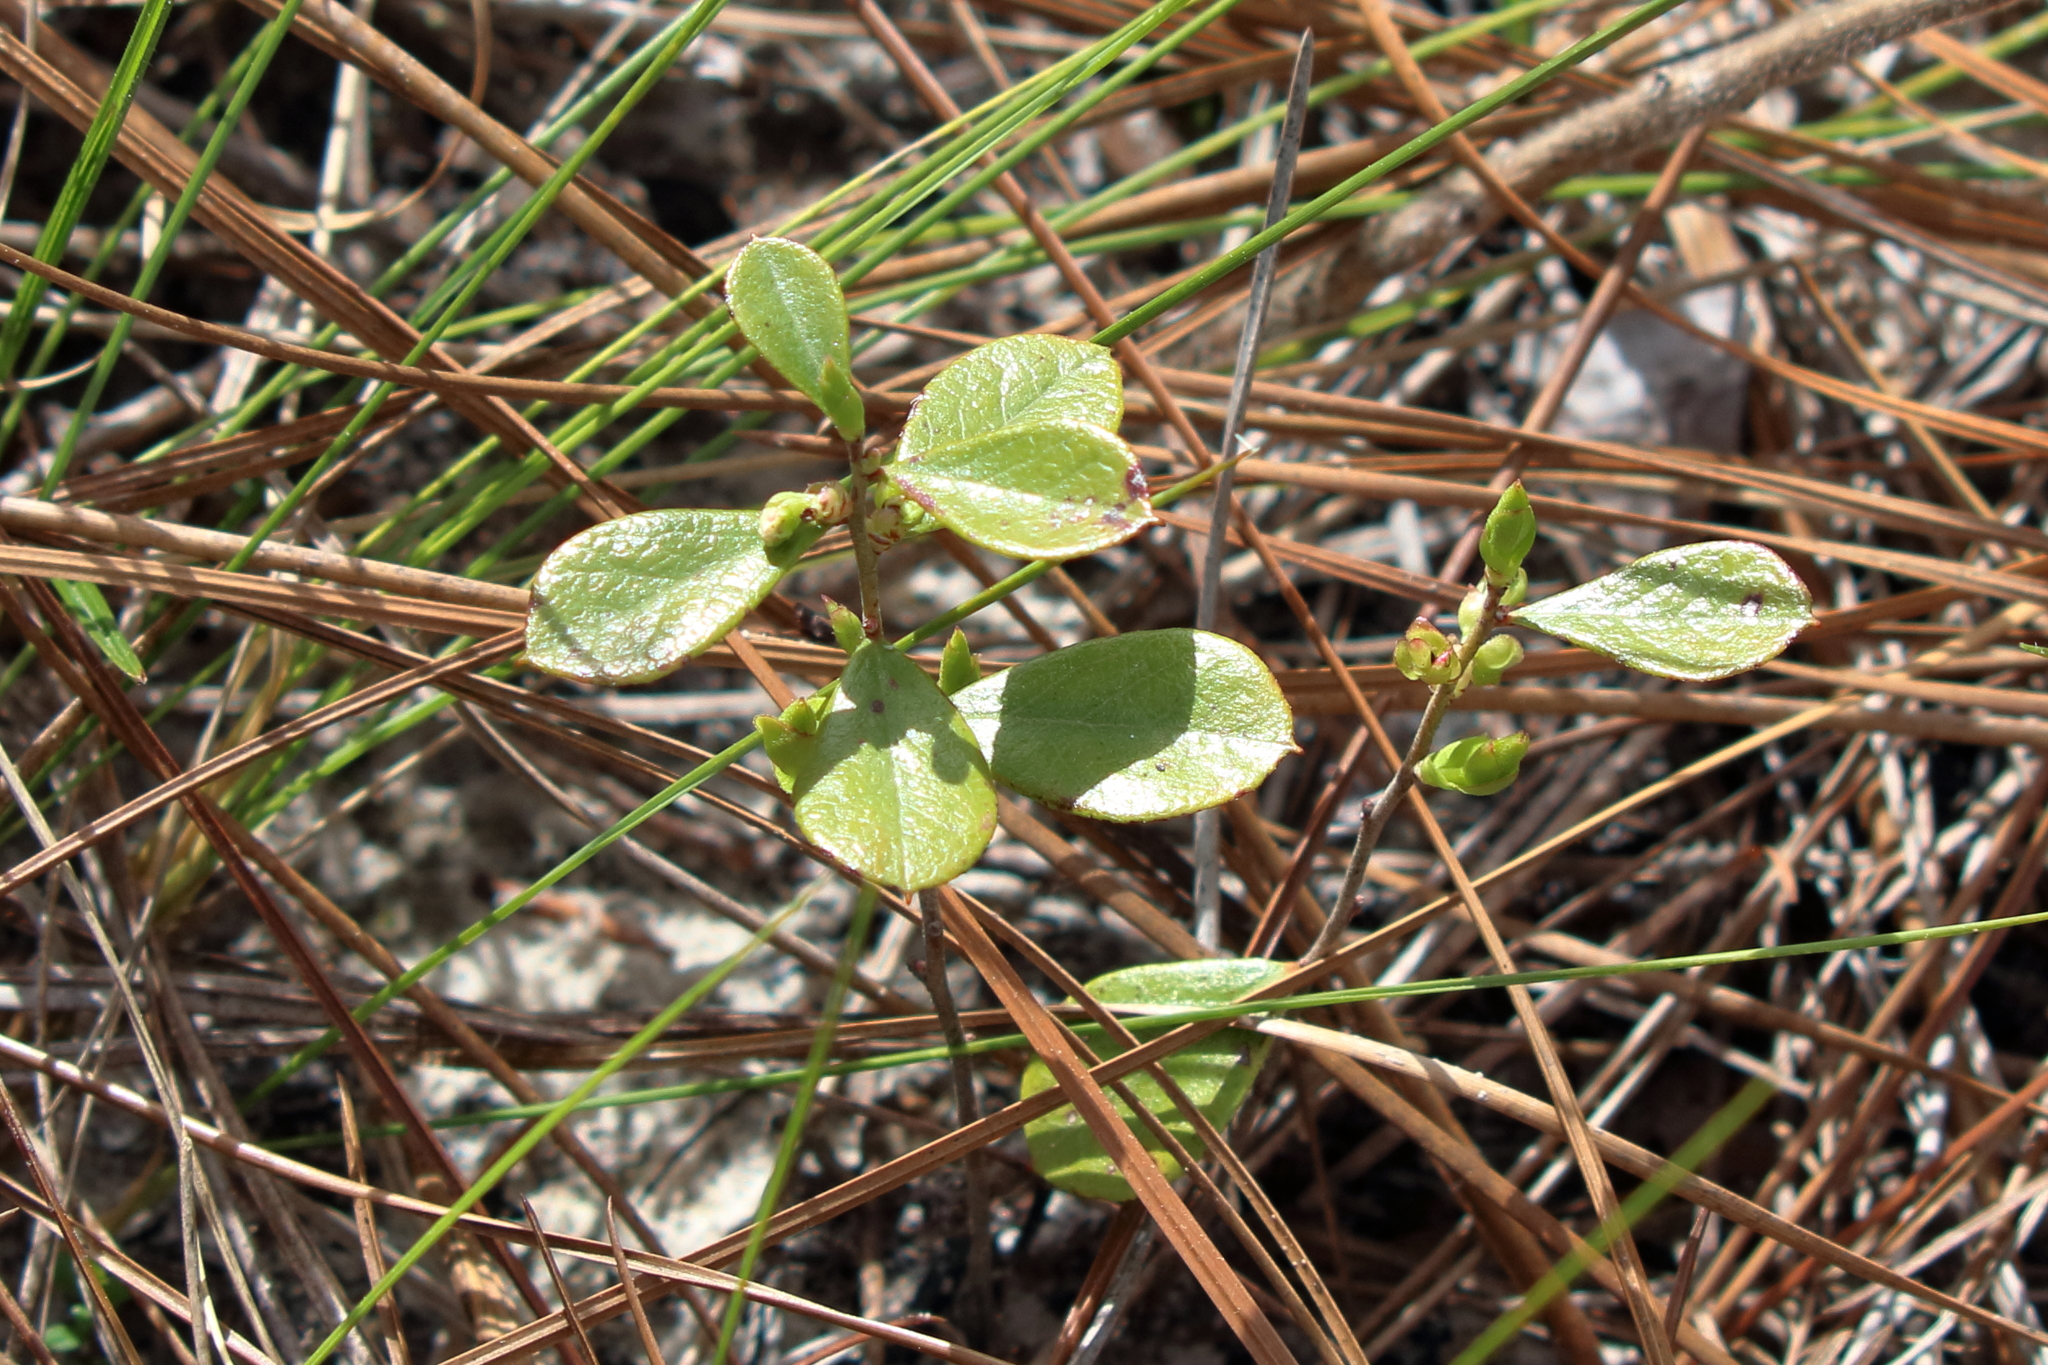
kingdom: Plantae
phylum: Tracheophyta
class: Magnoliopsida
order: Ericales
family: Ericaceae
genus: Gaylussacia
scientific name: Gaylussacia dumosa
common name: Dwarf huckleberry
